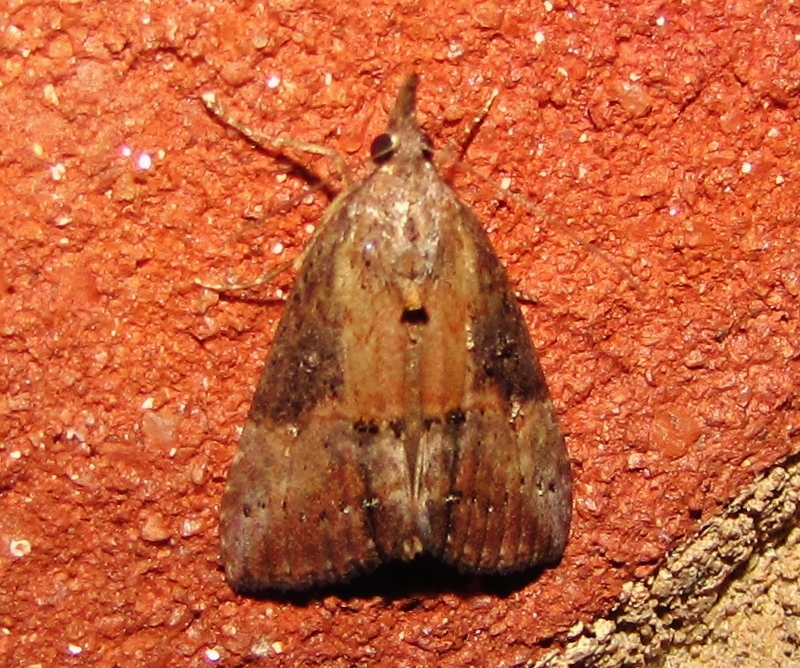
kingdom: Animalia
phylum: Arthropoda
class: Insecta
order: Lepidoptera
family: Erebidae
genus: Hypena
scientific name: Hypena scabra
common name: Green cloverworm
